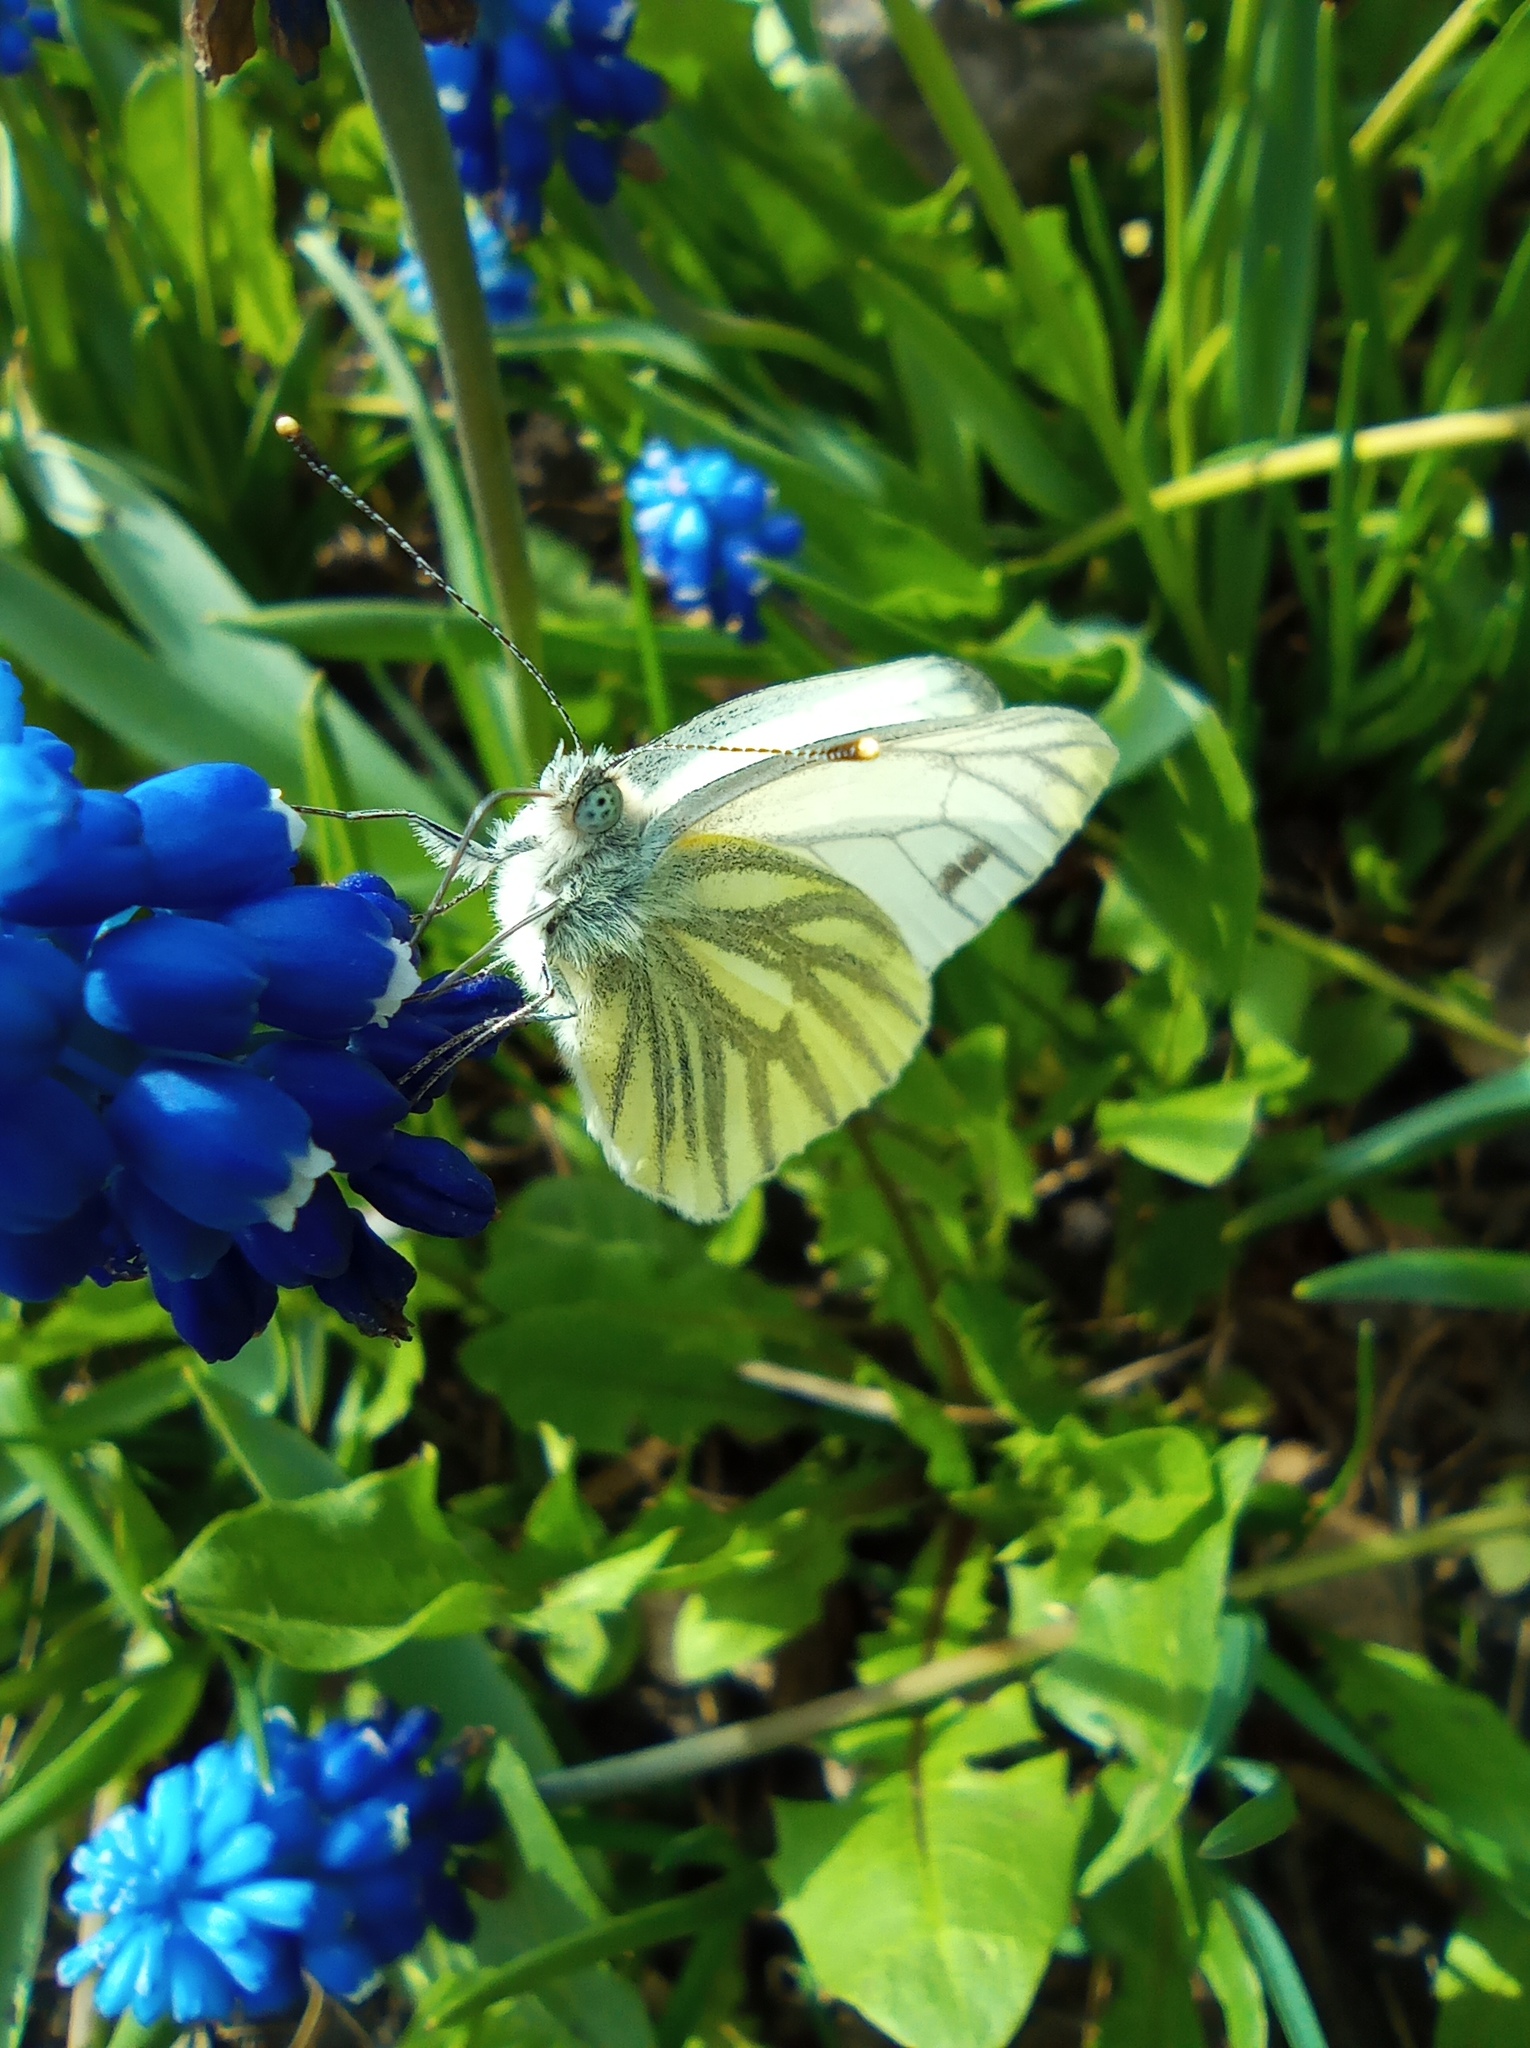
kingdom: Animalia
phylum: Arthropoda
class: Insecta
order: Lepidoptera
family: Pieridae
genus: Pieris
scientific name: Pieris napi
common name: Green-veined white
